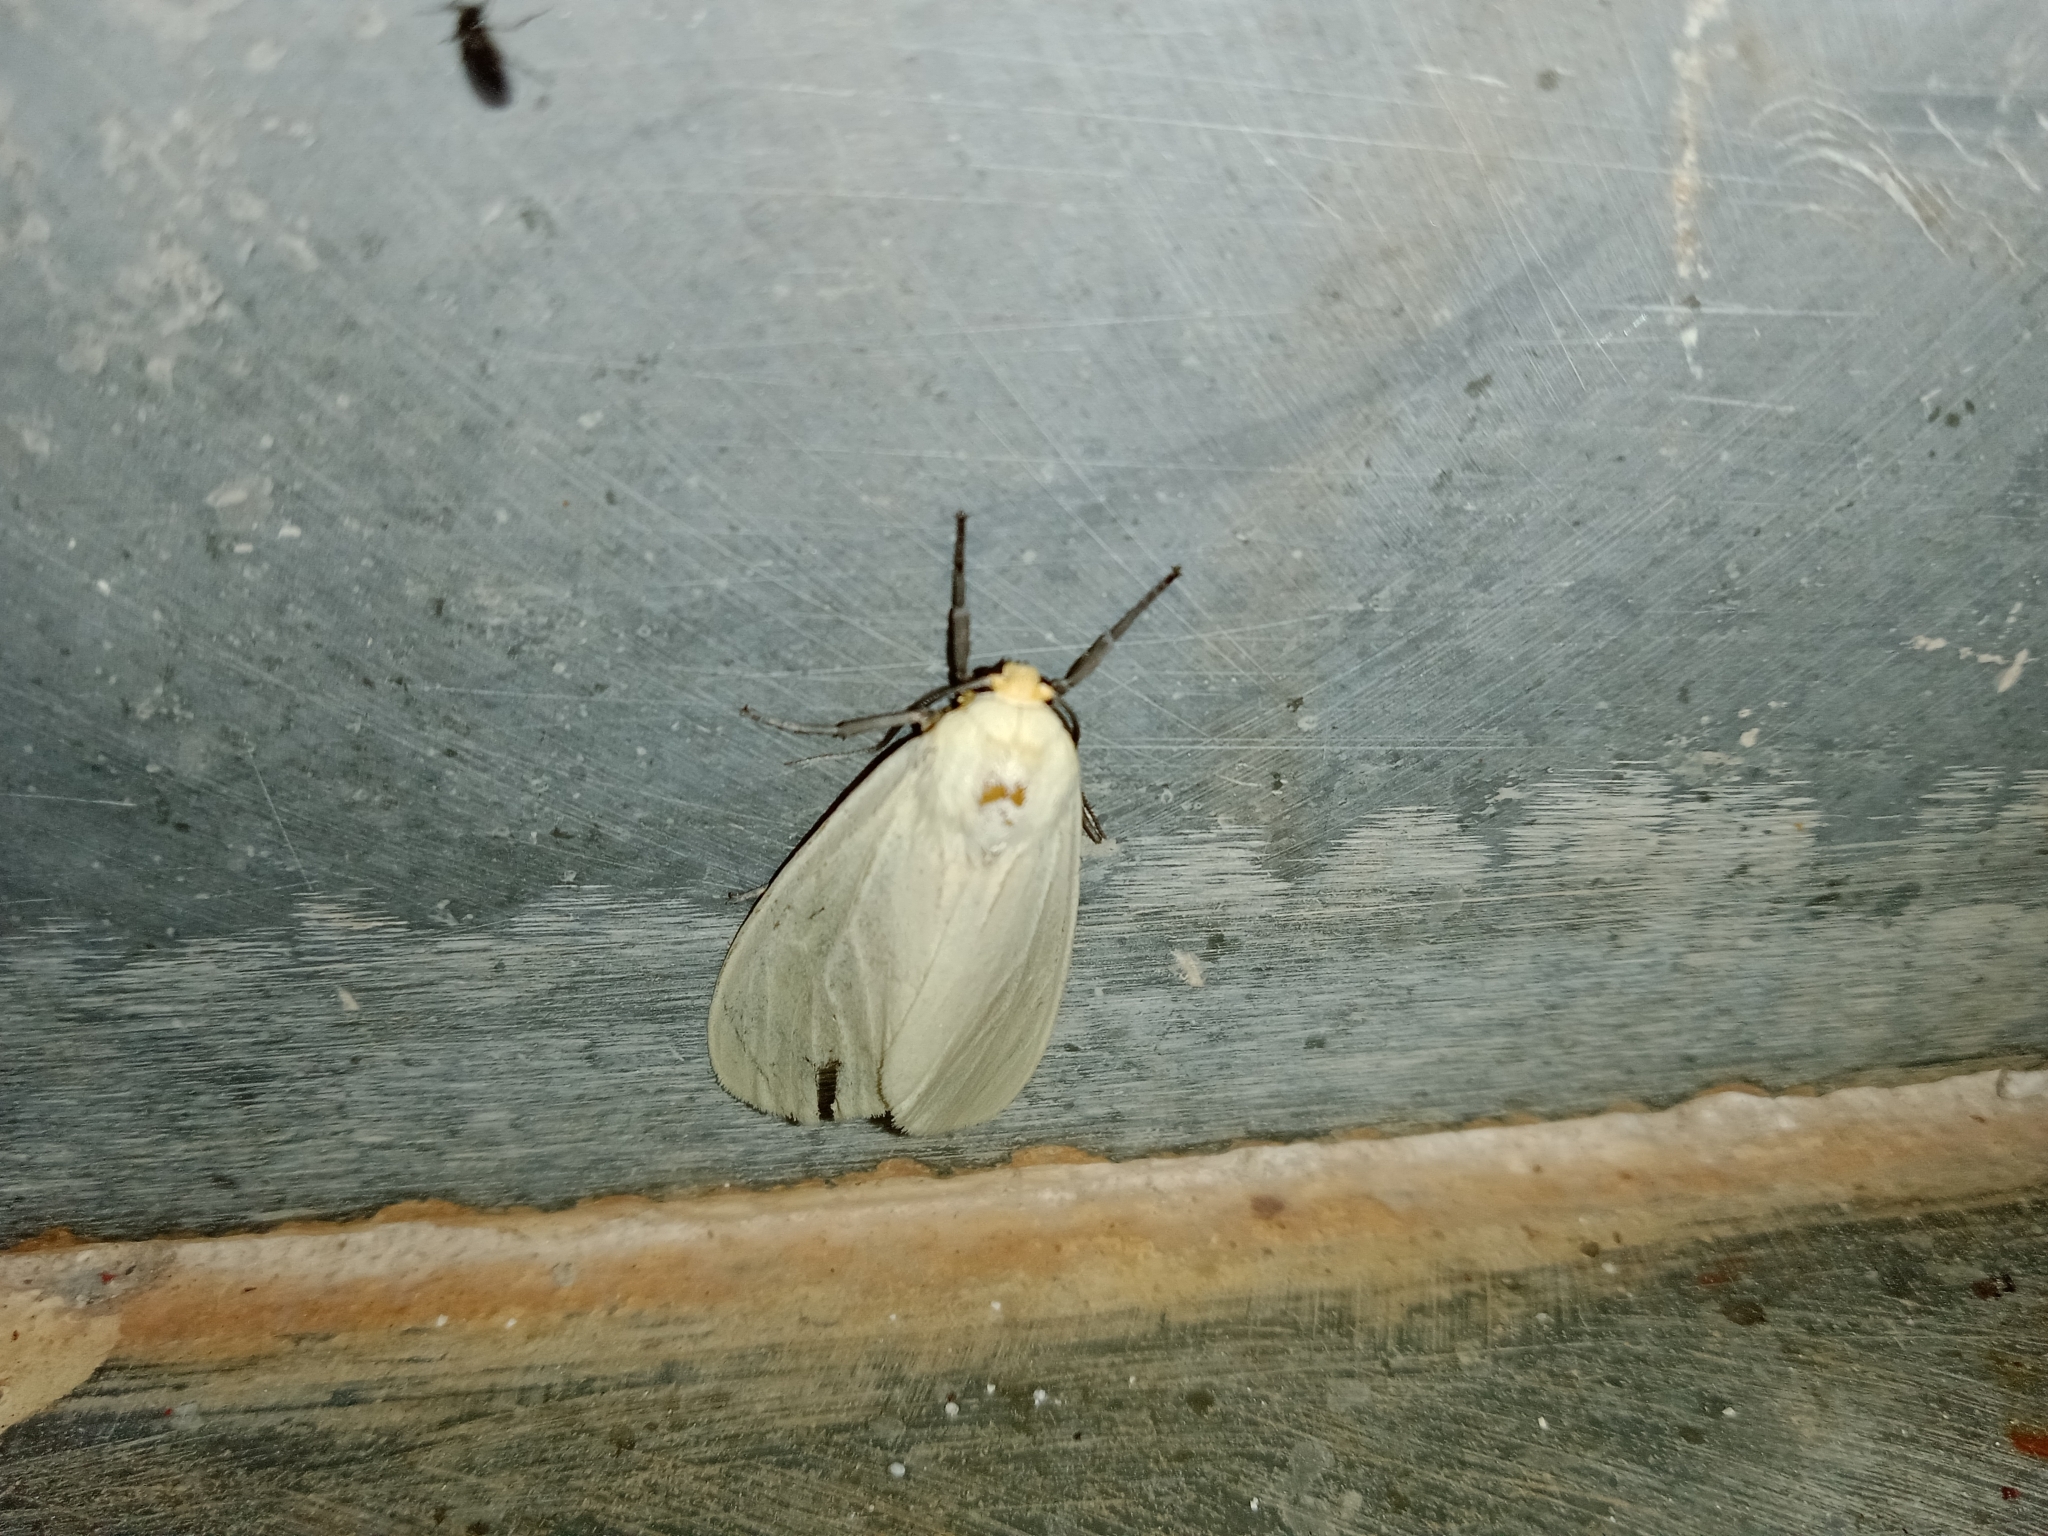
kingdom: Animalia
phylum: Arthropoda
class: Insecta
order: Lepidoptera
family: Erebidae
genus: Pareuchaetes
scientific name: Pareuchaetes pseudoinsulata
